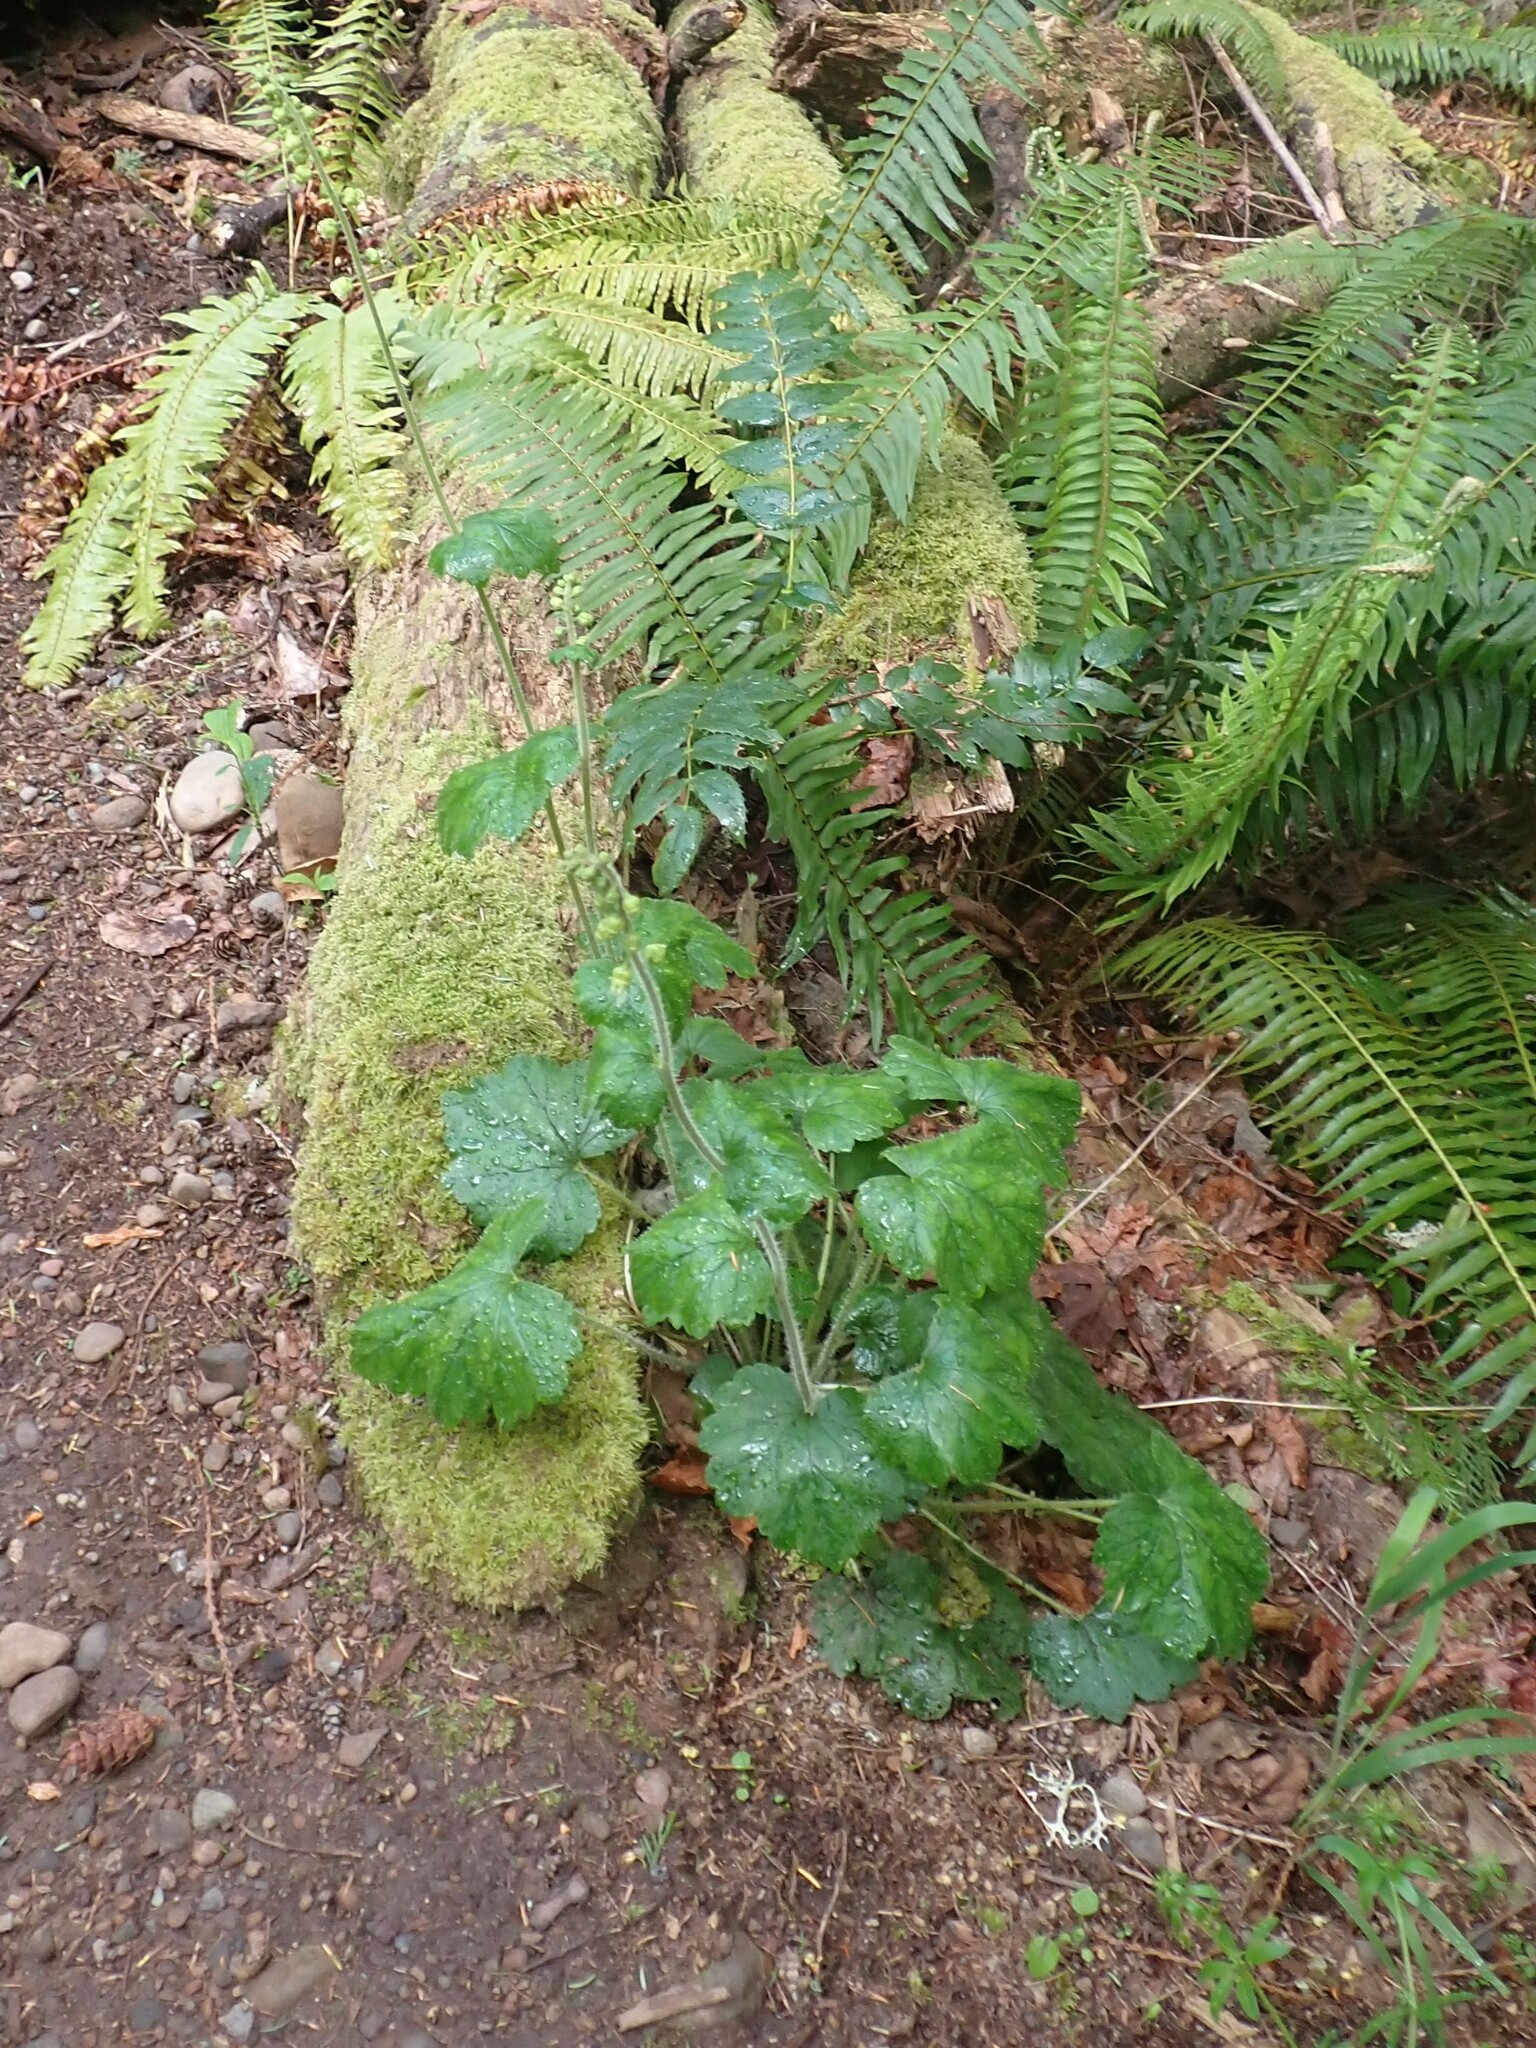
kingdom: Plantae
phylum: Tracheophyta
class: Magnoliopsida
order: Saxifragales
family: Saxifragaceae
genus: Tellima
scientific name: Tellima grandiflora
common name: Fringecups
